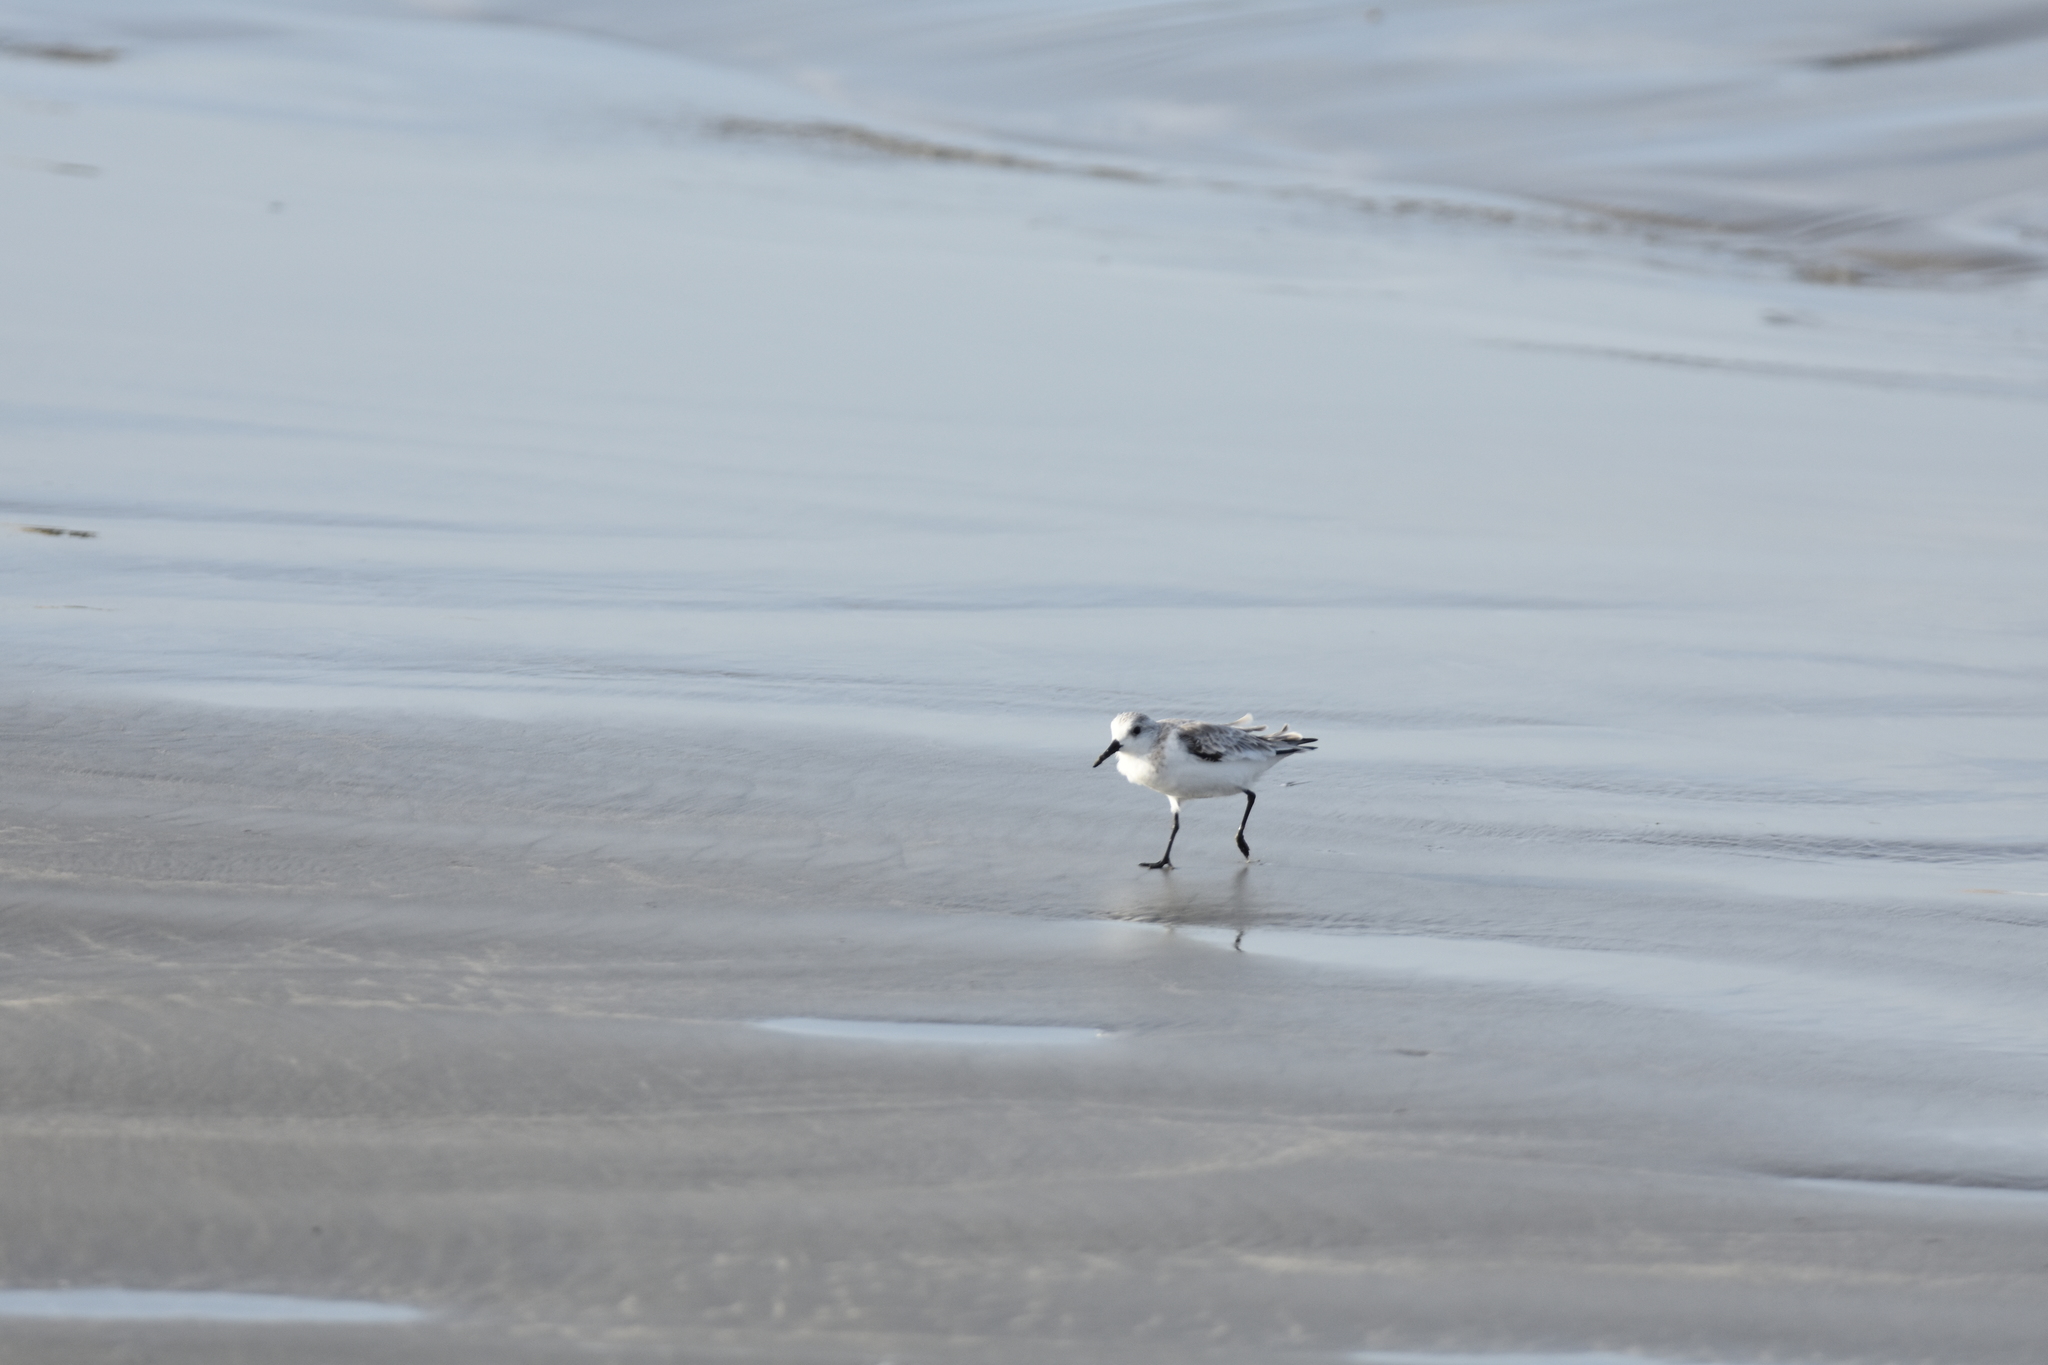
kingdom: Animalia
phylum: Chordata
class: Aves
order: Charadriiformes
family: Scolopacidae
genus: Calidris
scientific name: Calidris alba
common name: Sanderling
